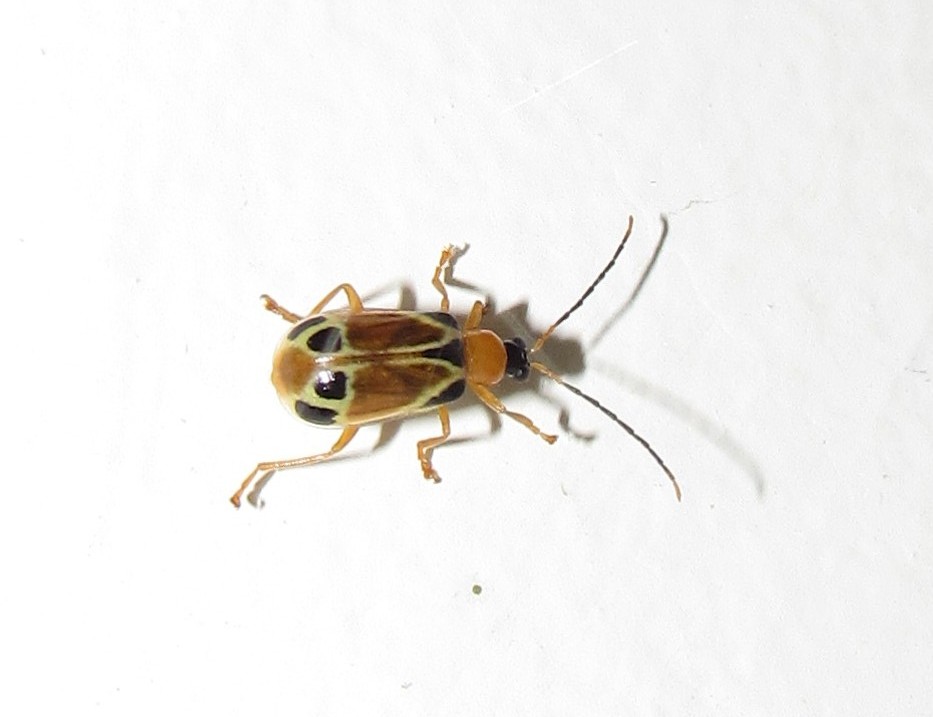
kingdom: Animalia
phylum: Arthropoda
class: Insecta
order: Coleoptera
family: Chrysomelidae
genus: Diabrotica
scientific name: Diabrotica
